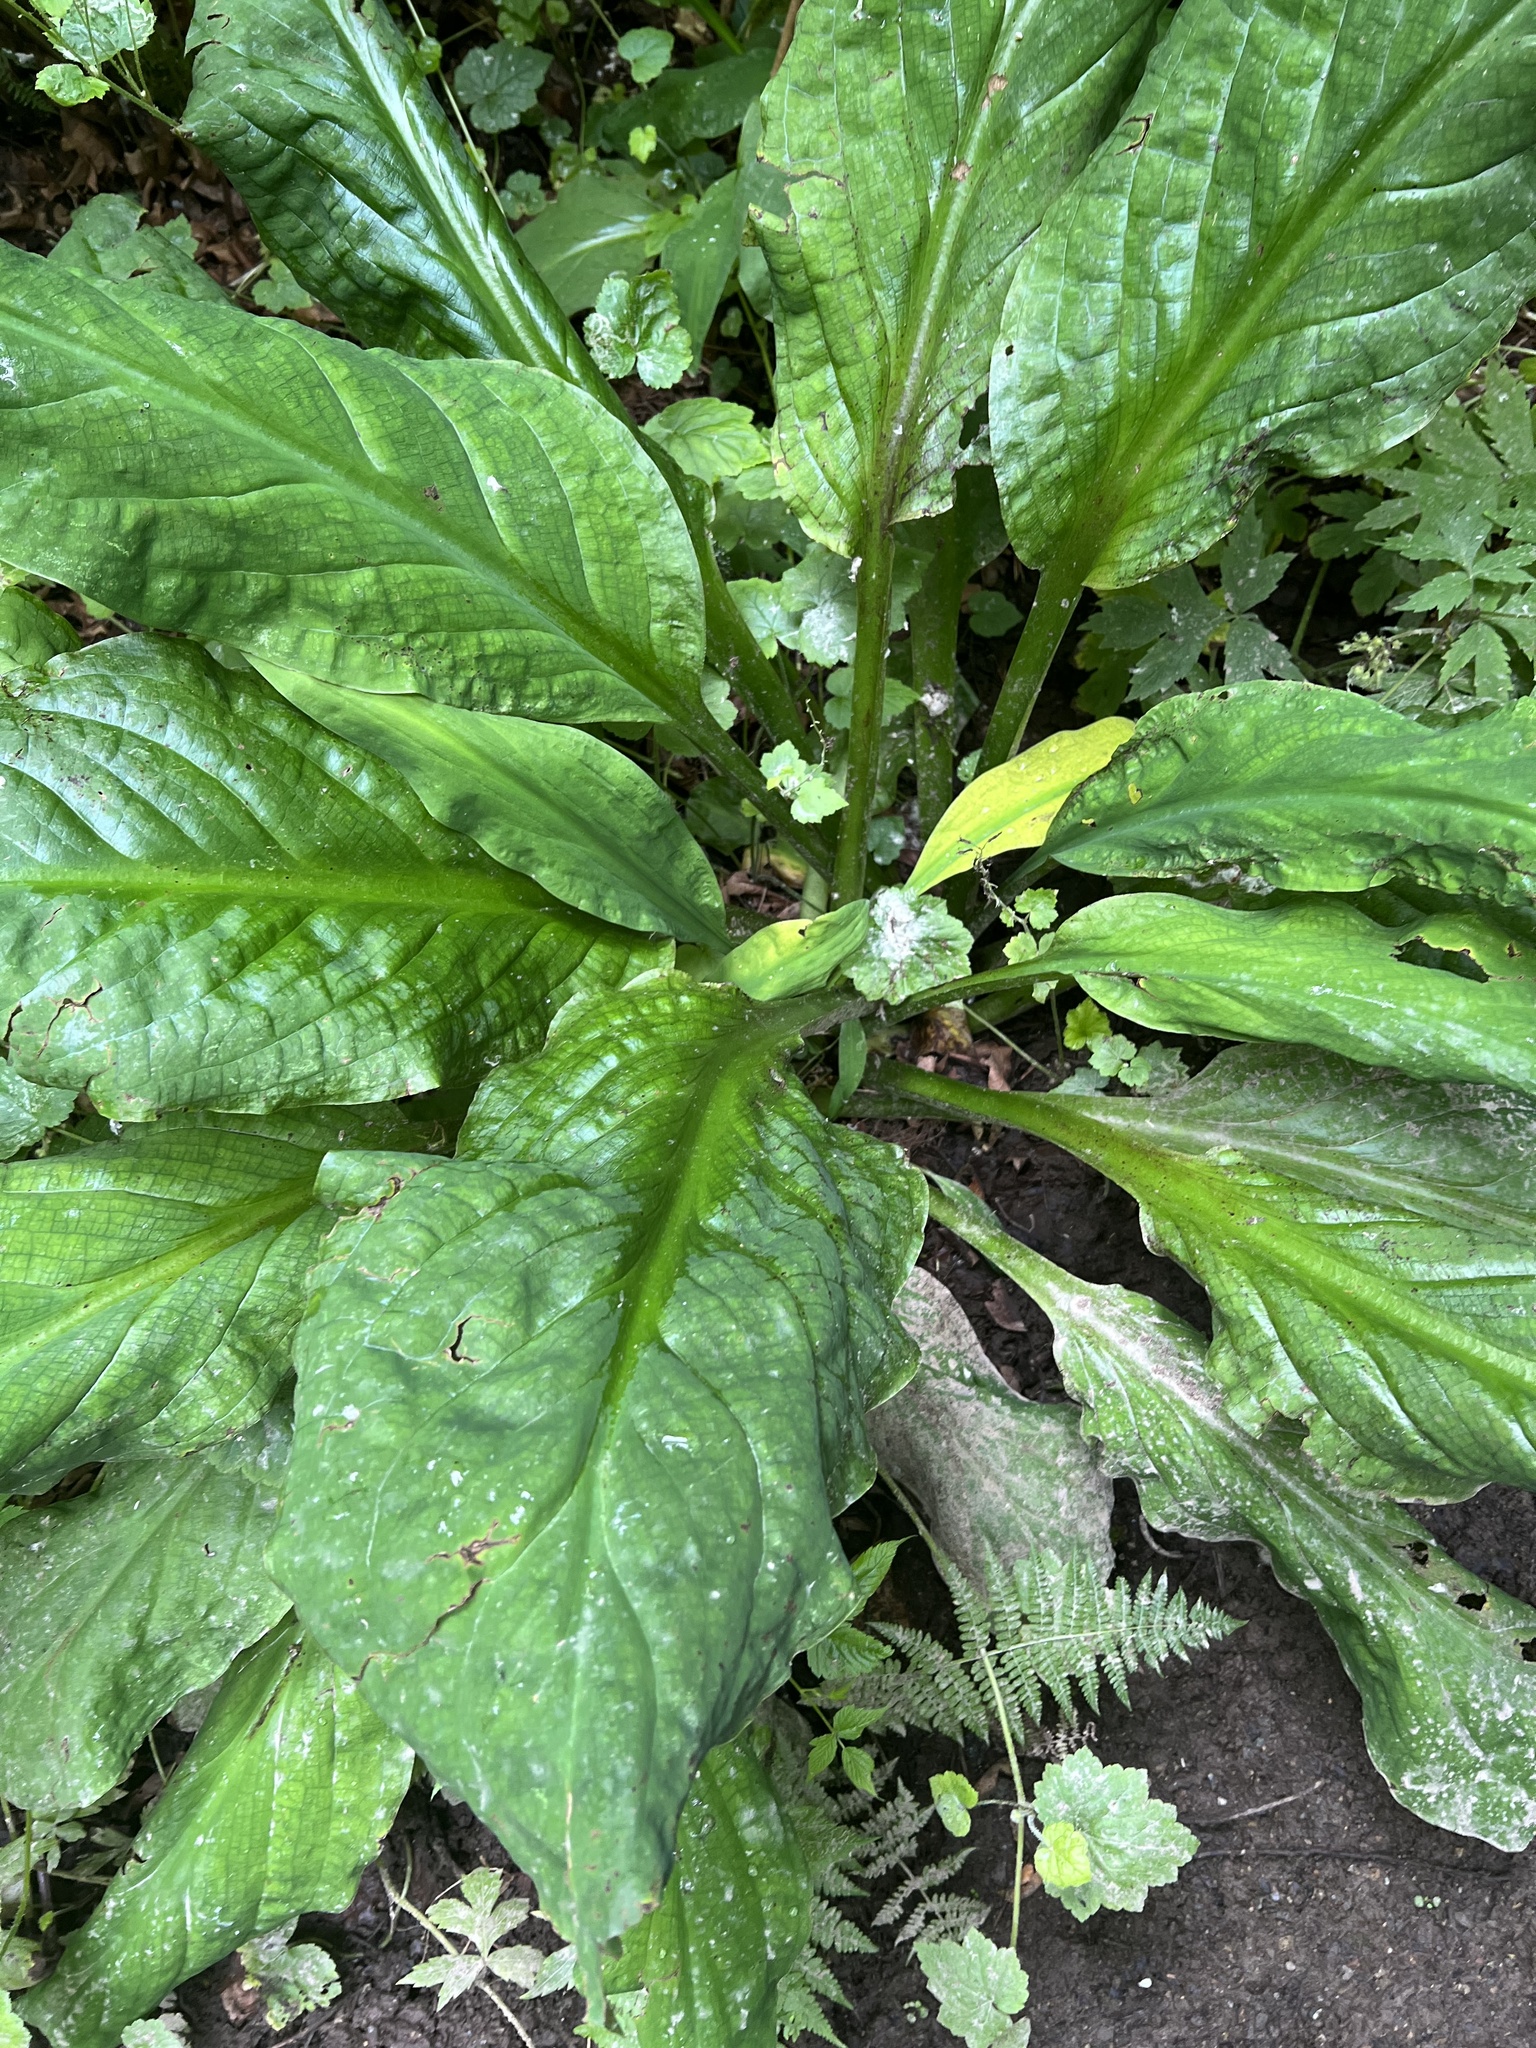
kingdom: Plantae
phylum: Tracheophyta
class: Liliopsida
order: Alismatales
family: Araceae
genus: Lysichiton
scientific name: Lysichiton americanus
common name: American skunk cabbage
